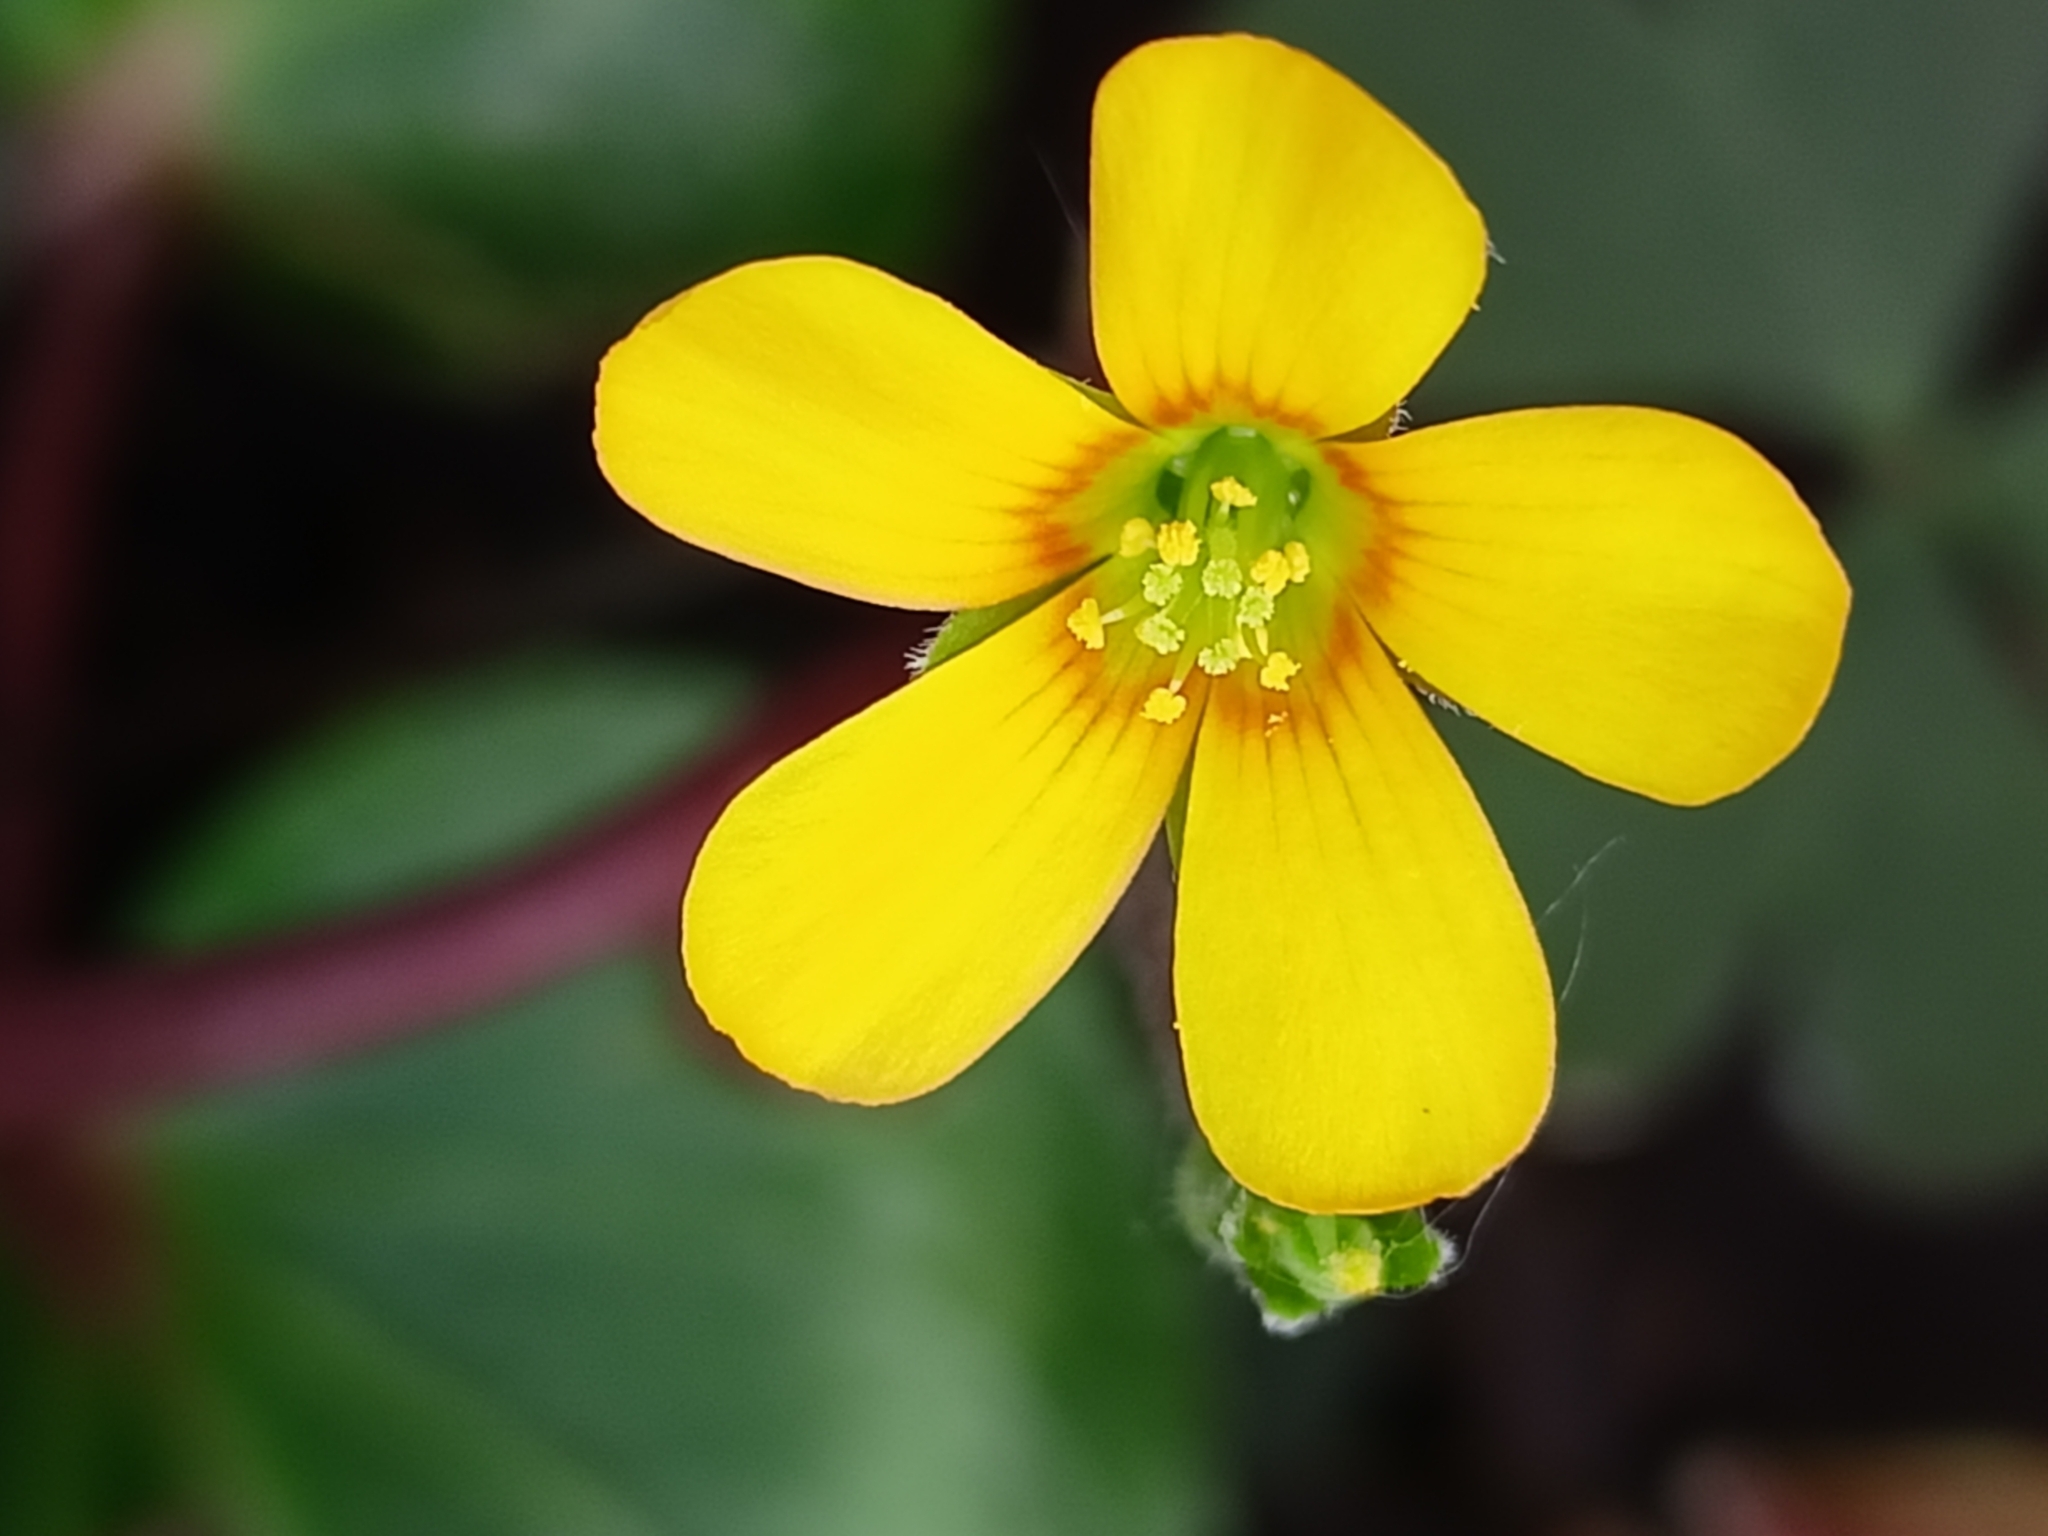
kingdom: Plantae
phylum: Tracheophyta
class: Magnoliopsida
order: Oxalidales
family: Oxalidaceae
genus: Oxalis
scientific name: Oxalis corniculata
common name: Procumbent yellow-sorrel
